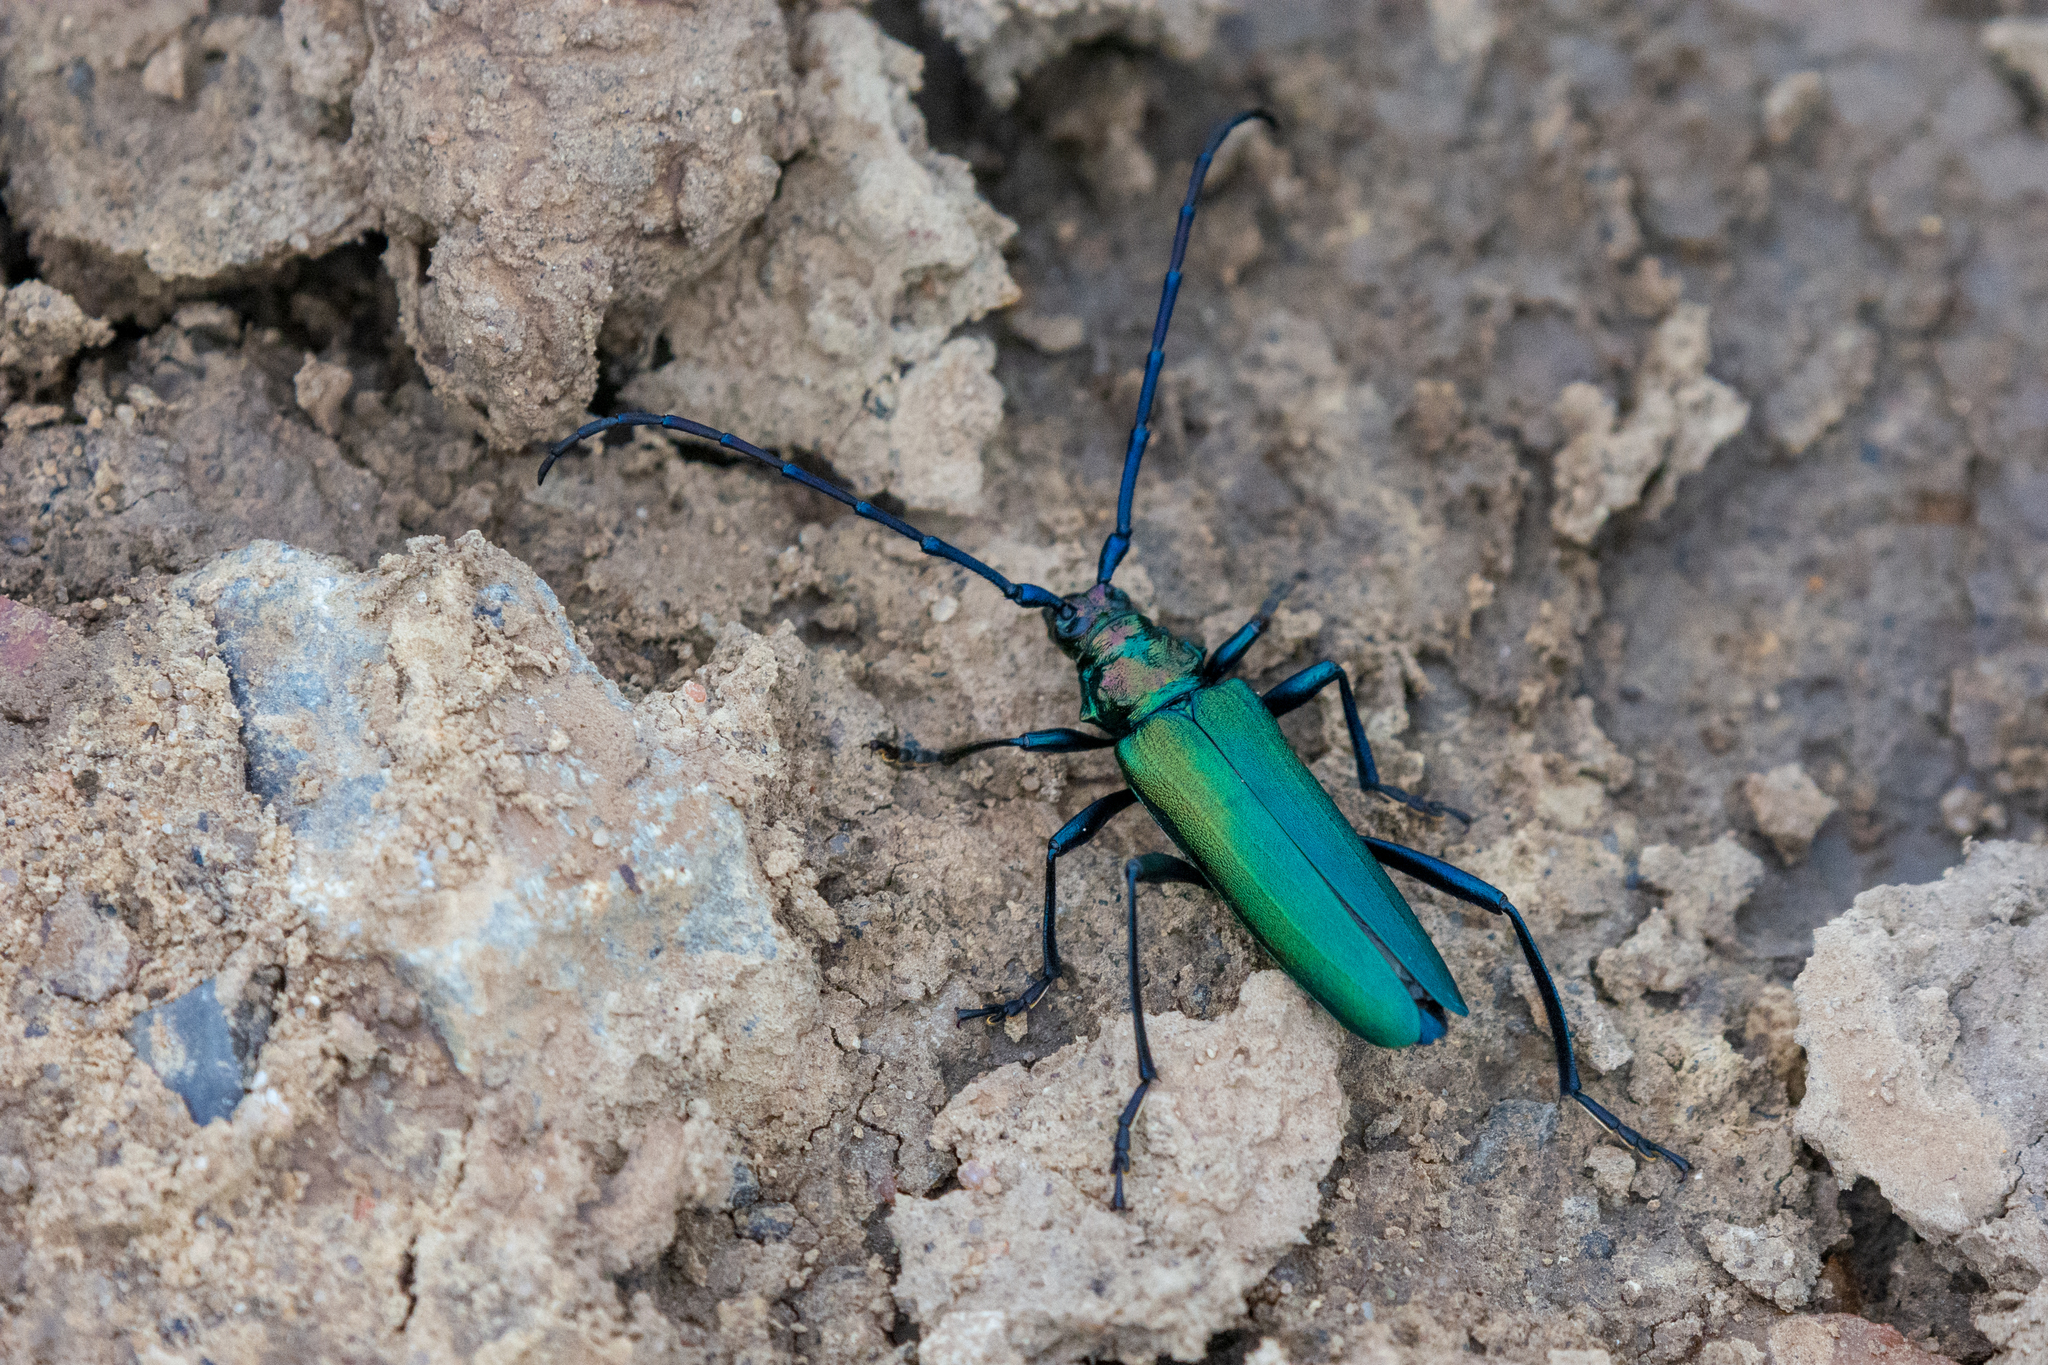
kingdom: Animalia
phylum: Arthropoda
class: Insecta
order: Coleoptera
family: Cerambycidae
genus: Aromia
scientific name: Aromia moschata
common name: Musk beetle
